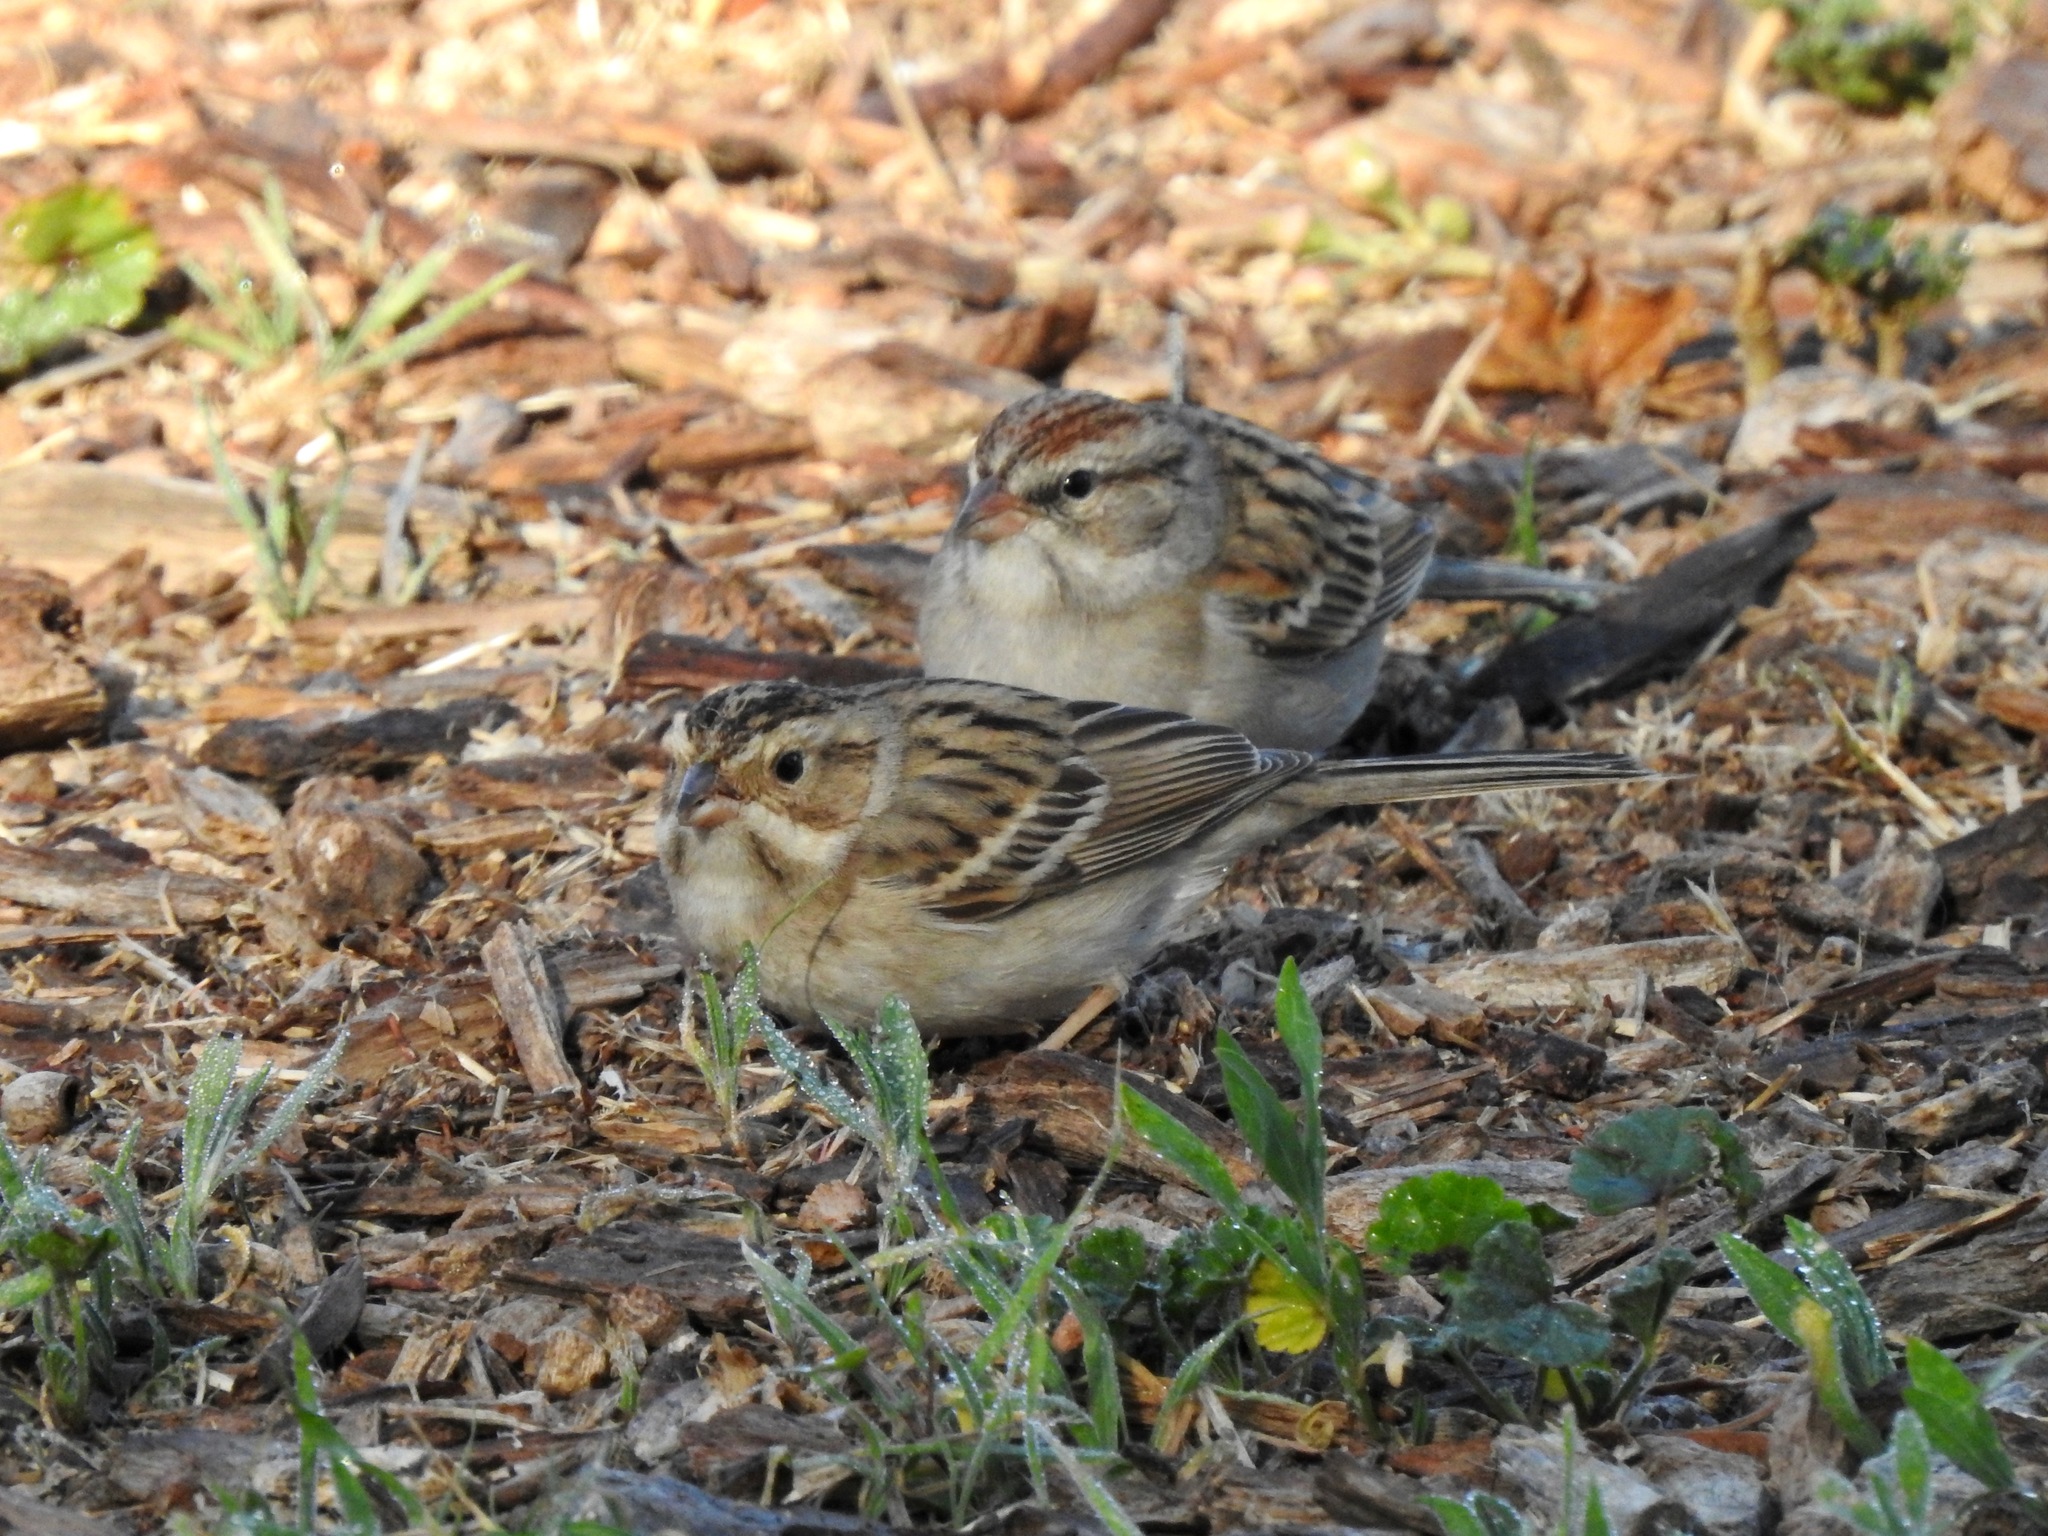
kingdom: Animalia
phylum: Chordata
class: Aves
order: Passeriformes
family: Passerellidae
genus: Spizella
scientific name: Spizella pallida
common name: Clay-colored sparrow
